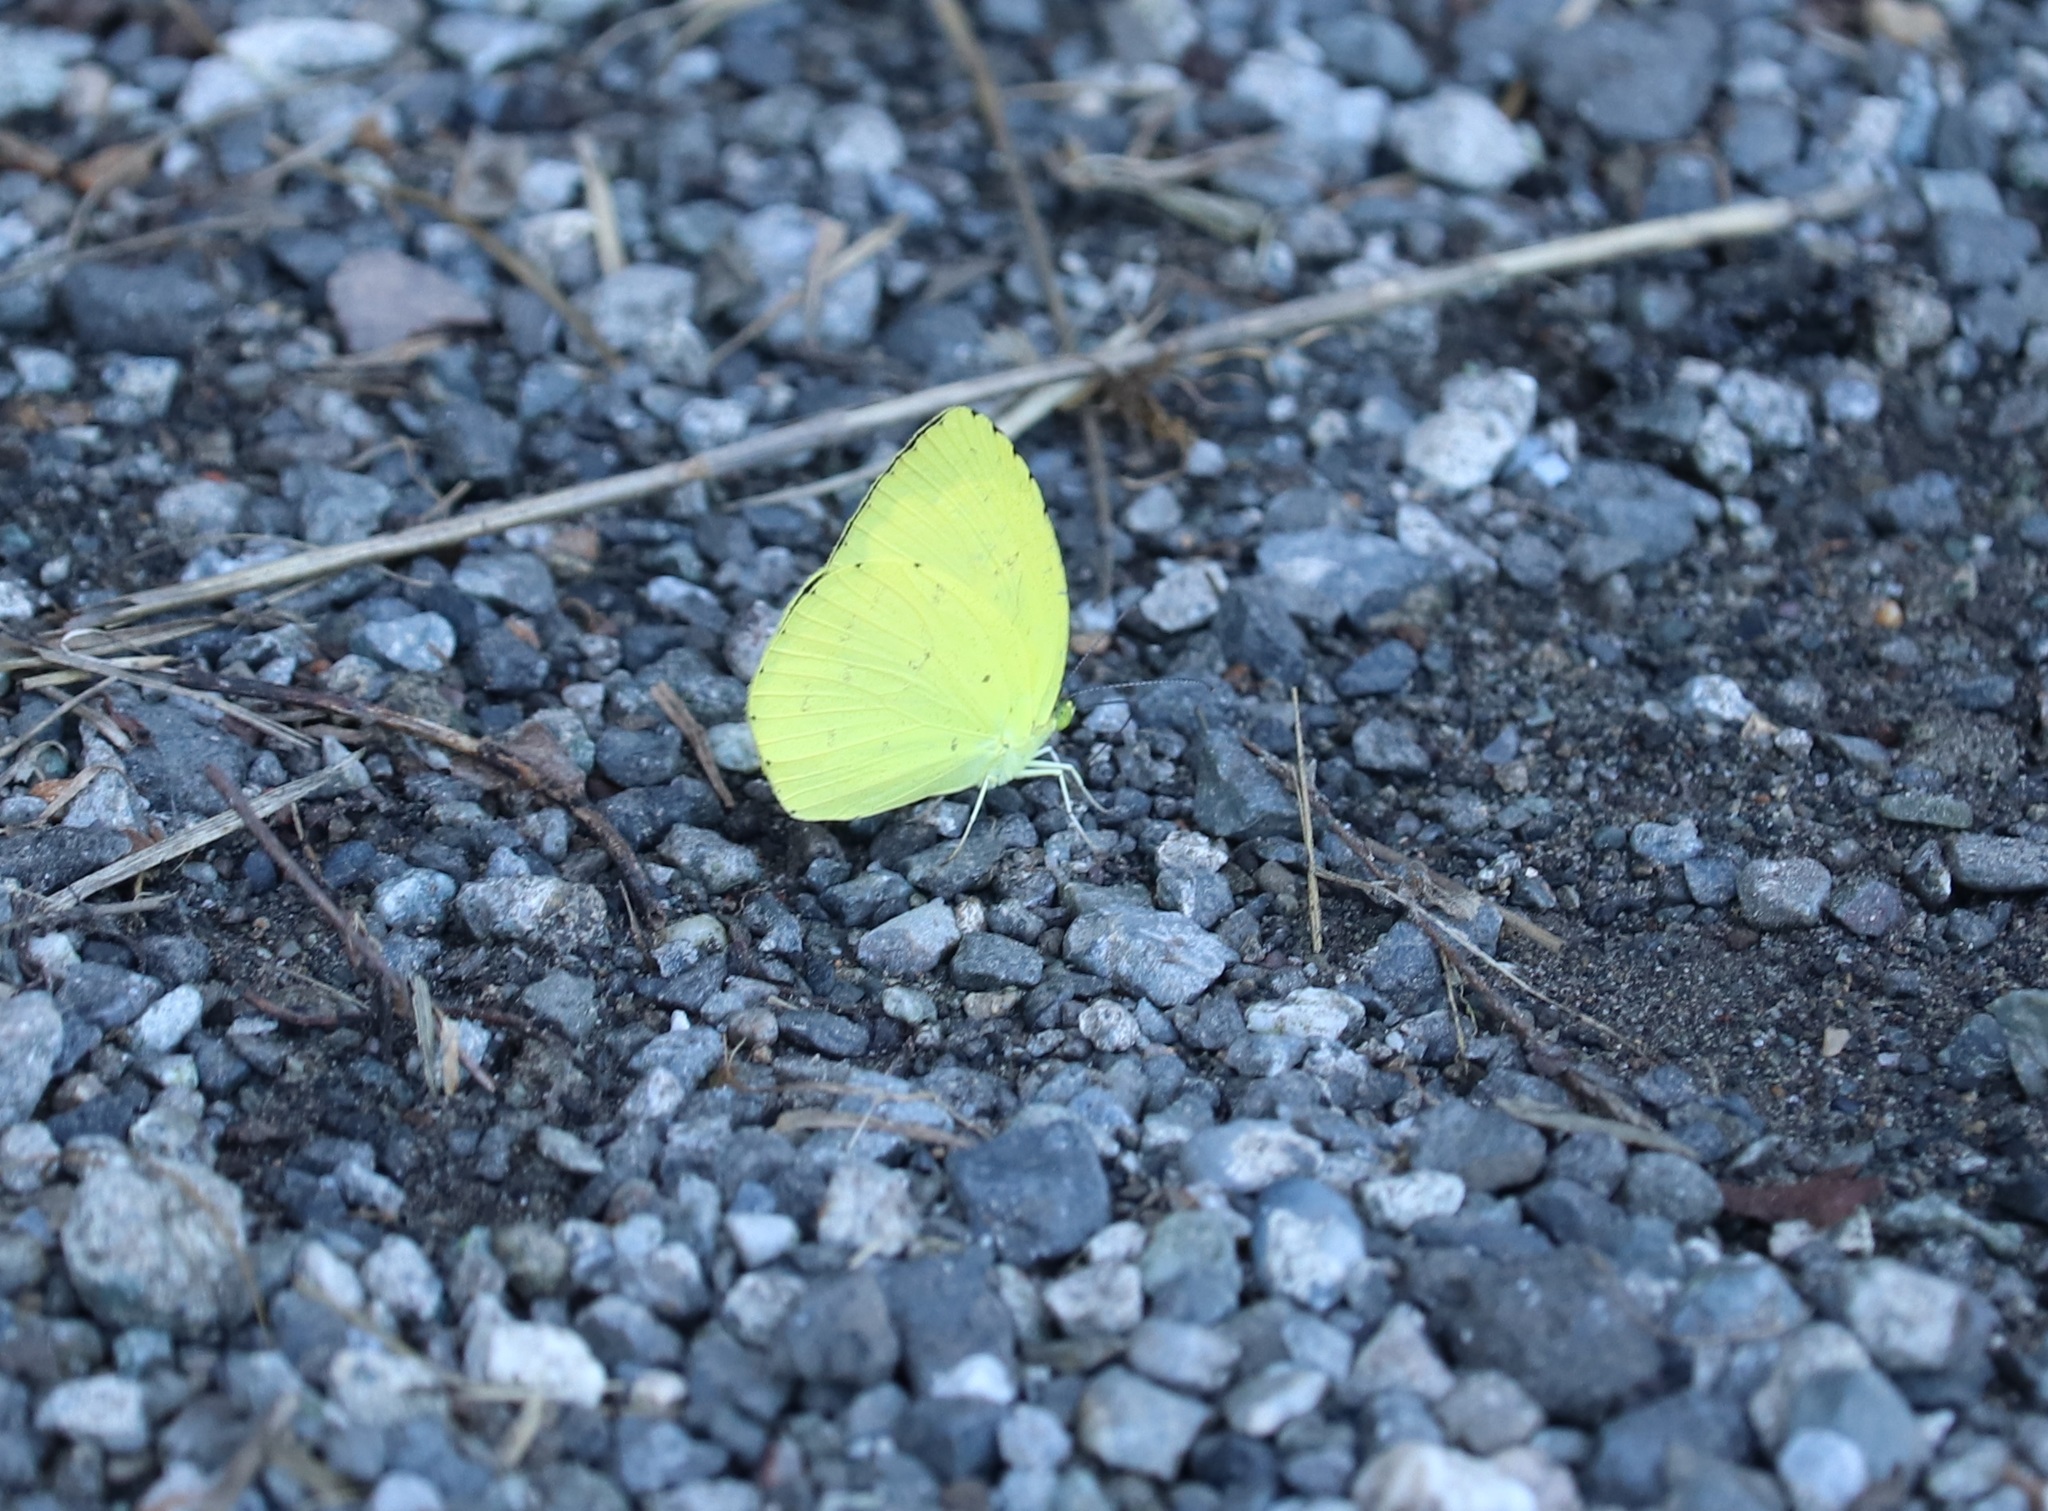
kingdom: Animalia
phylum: Arthropoda
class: Insecta
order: Lepidoptera
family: Pieridae
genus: Eurema
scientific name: Eurema mandarina
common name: Japanese common grass yellow
